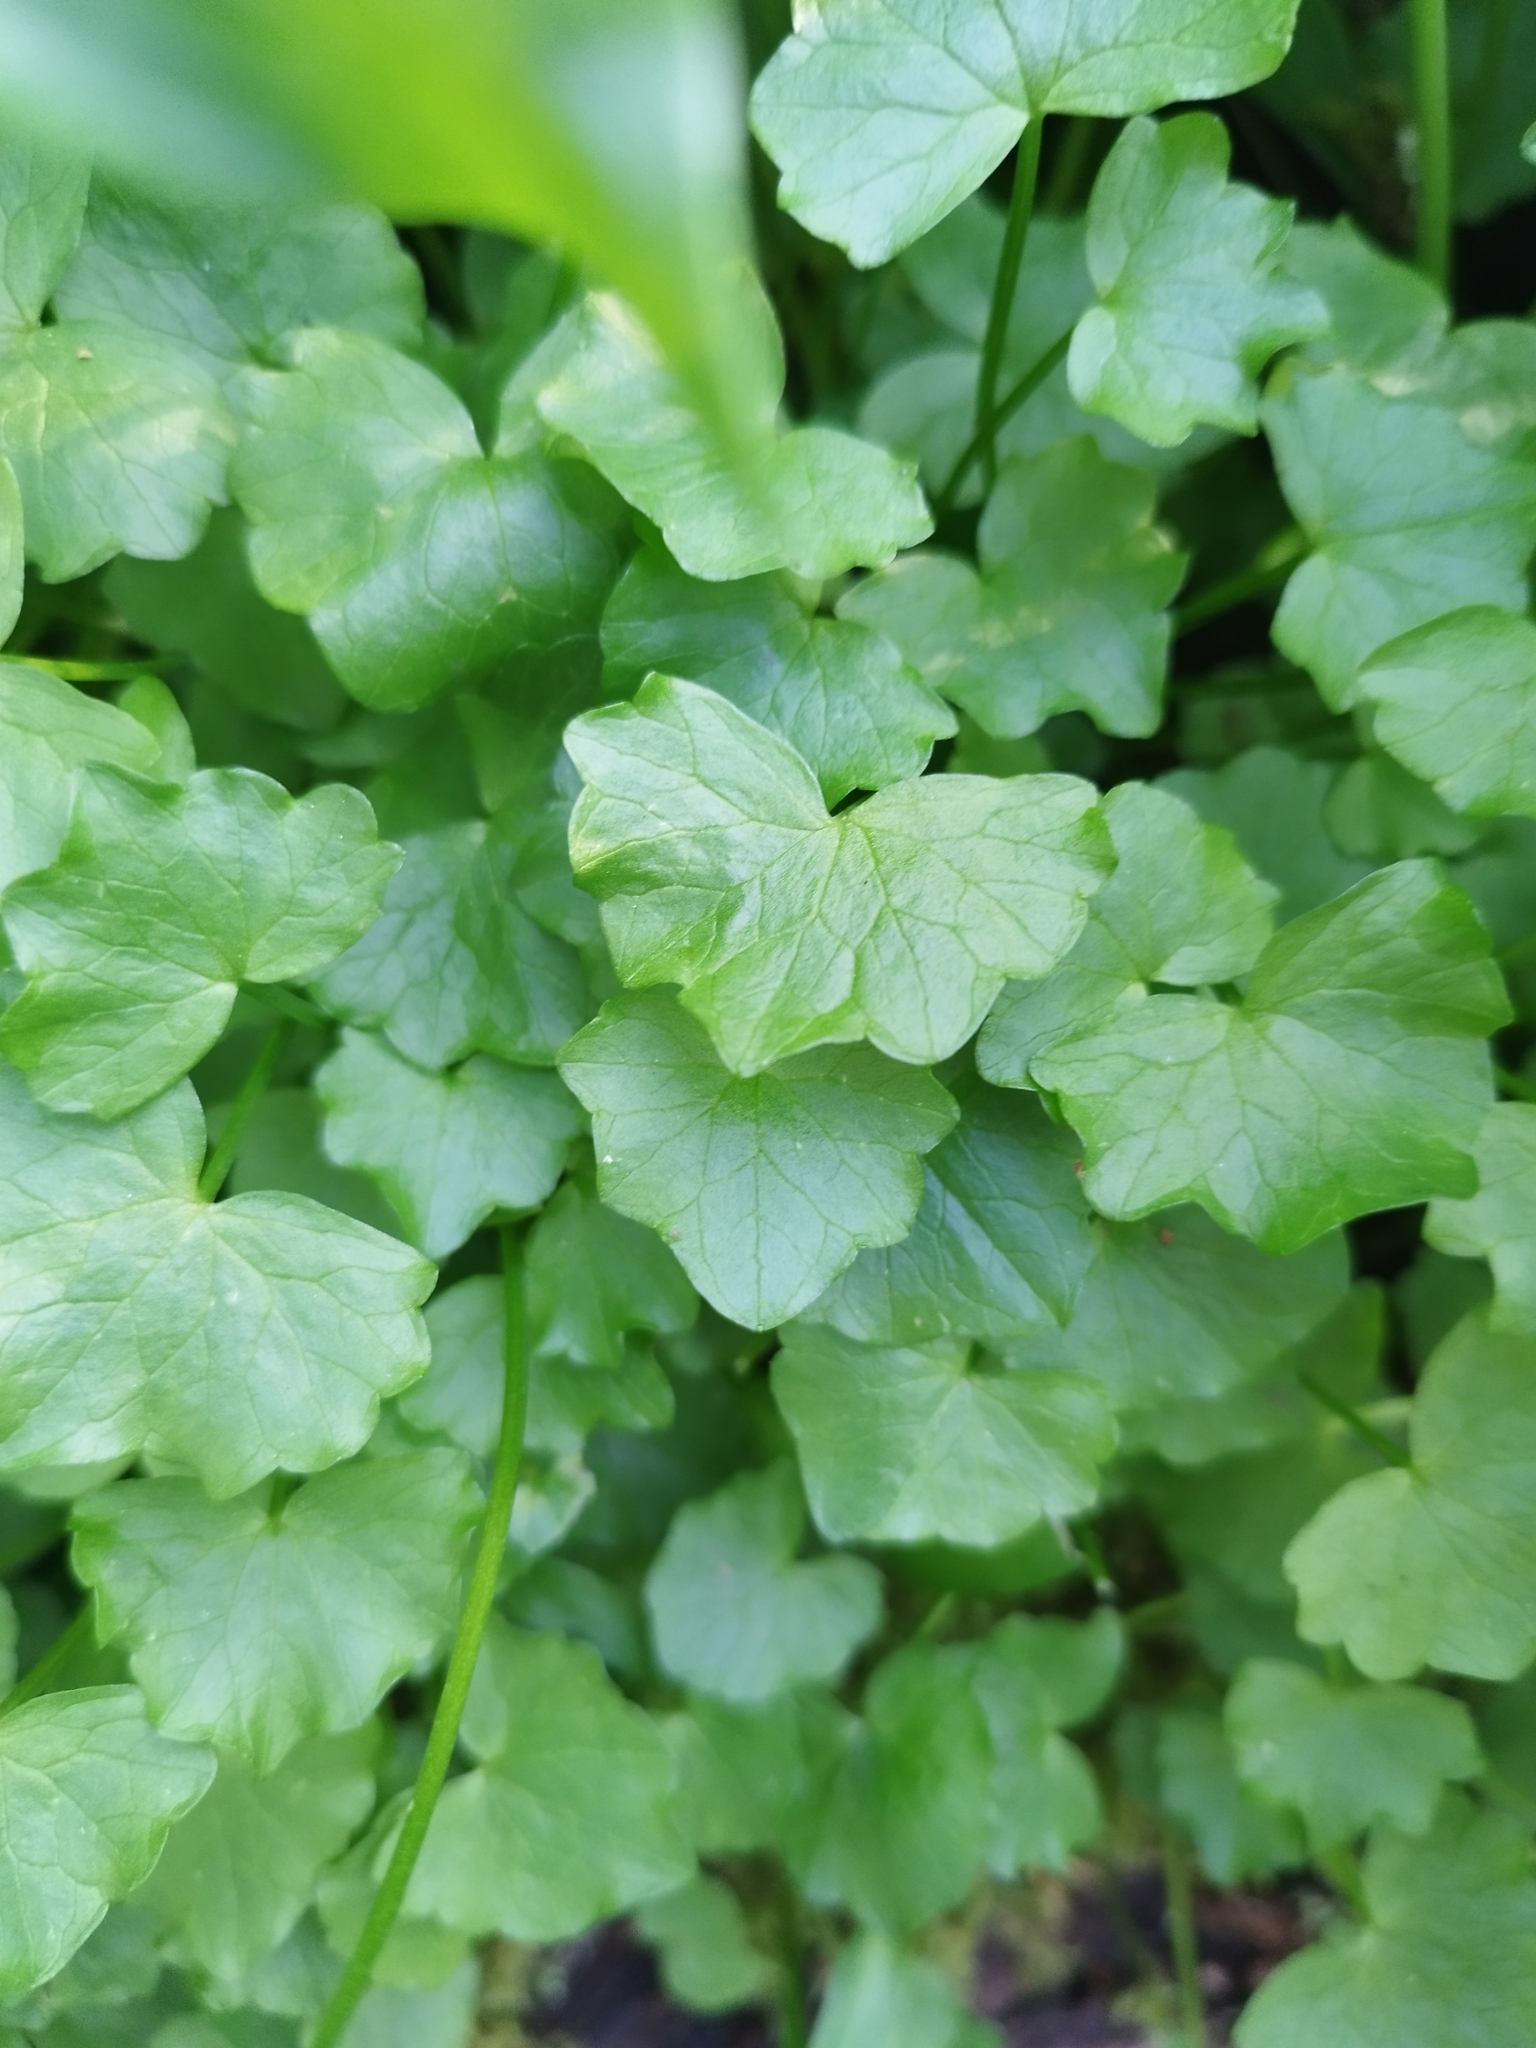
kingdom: Plantae
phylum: Tracheophyta
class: Magnoliopsida
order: Ranunculales
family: Ranunculaceae
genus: Ficaria
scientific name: Ficaria verna
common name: Lesser celandine
